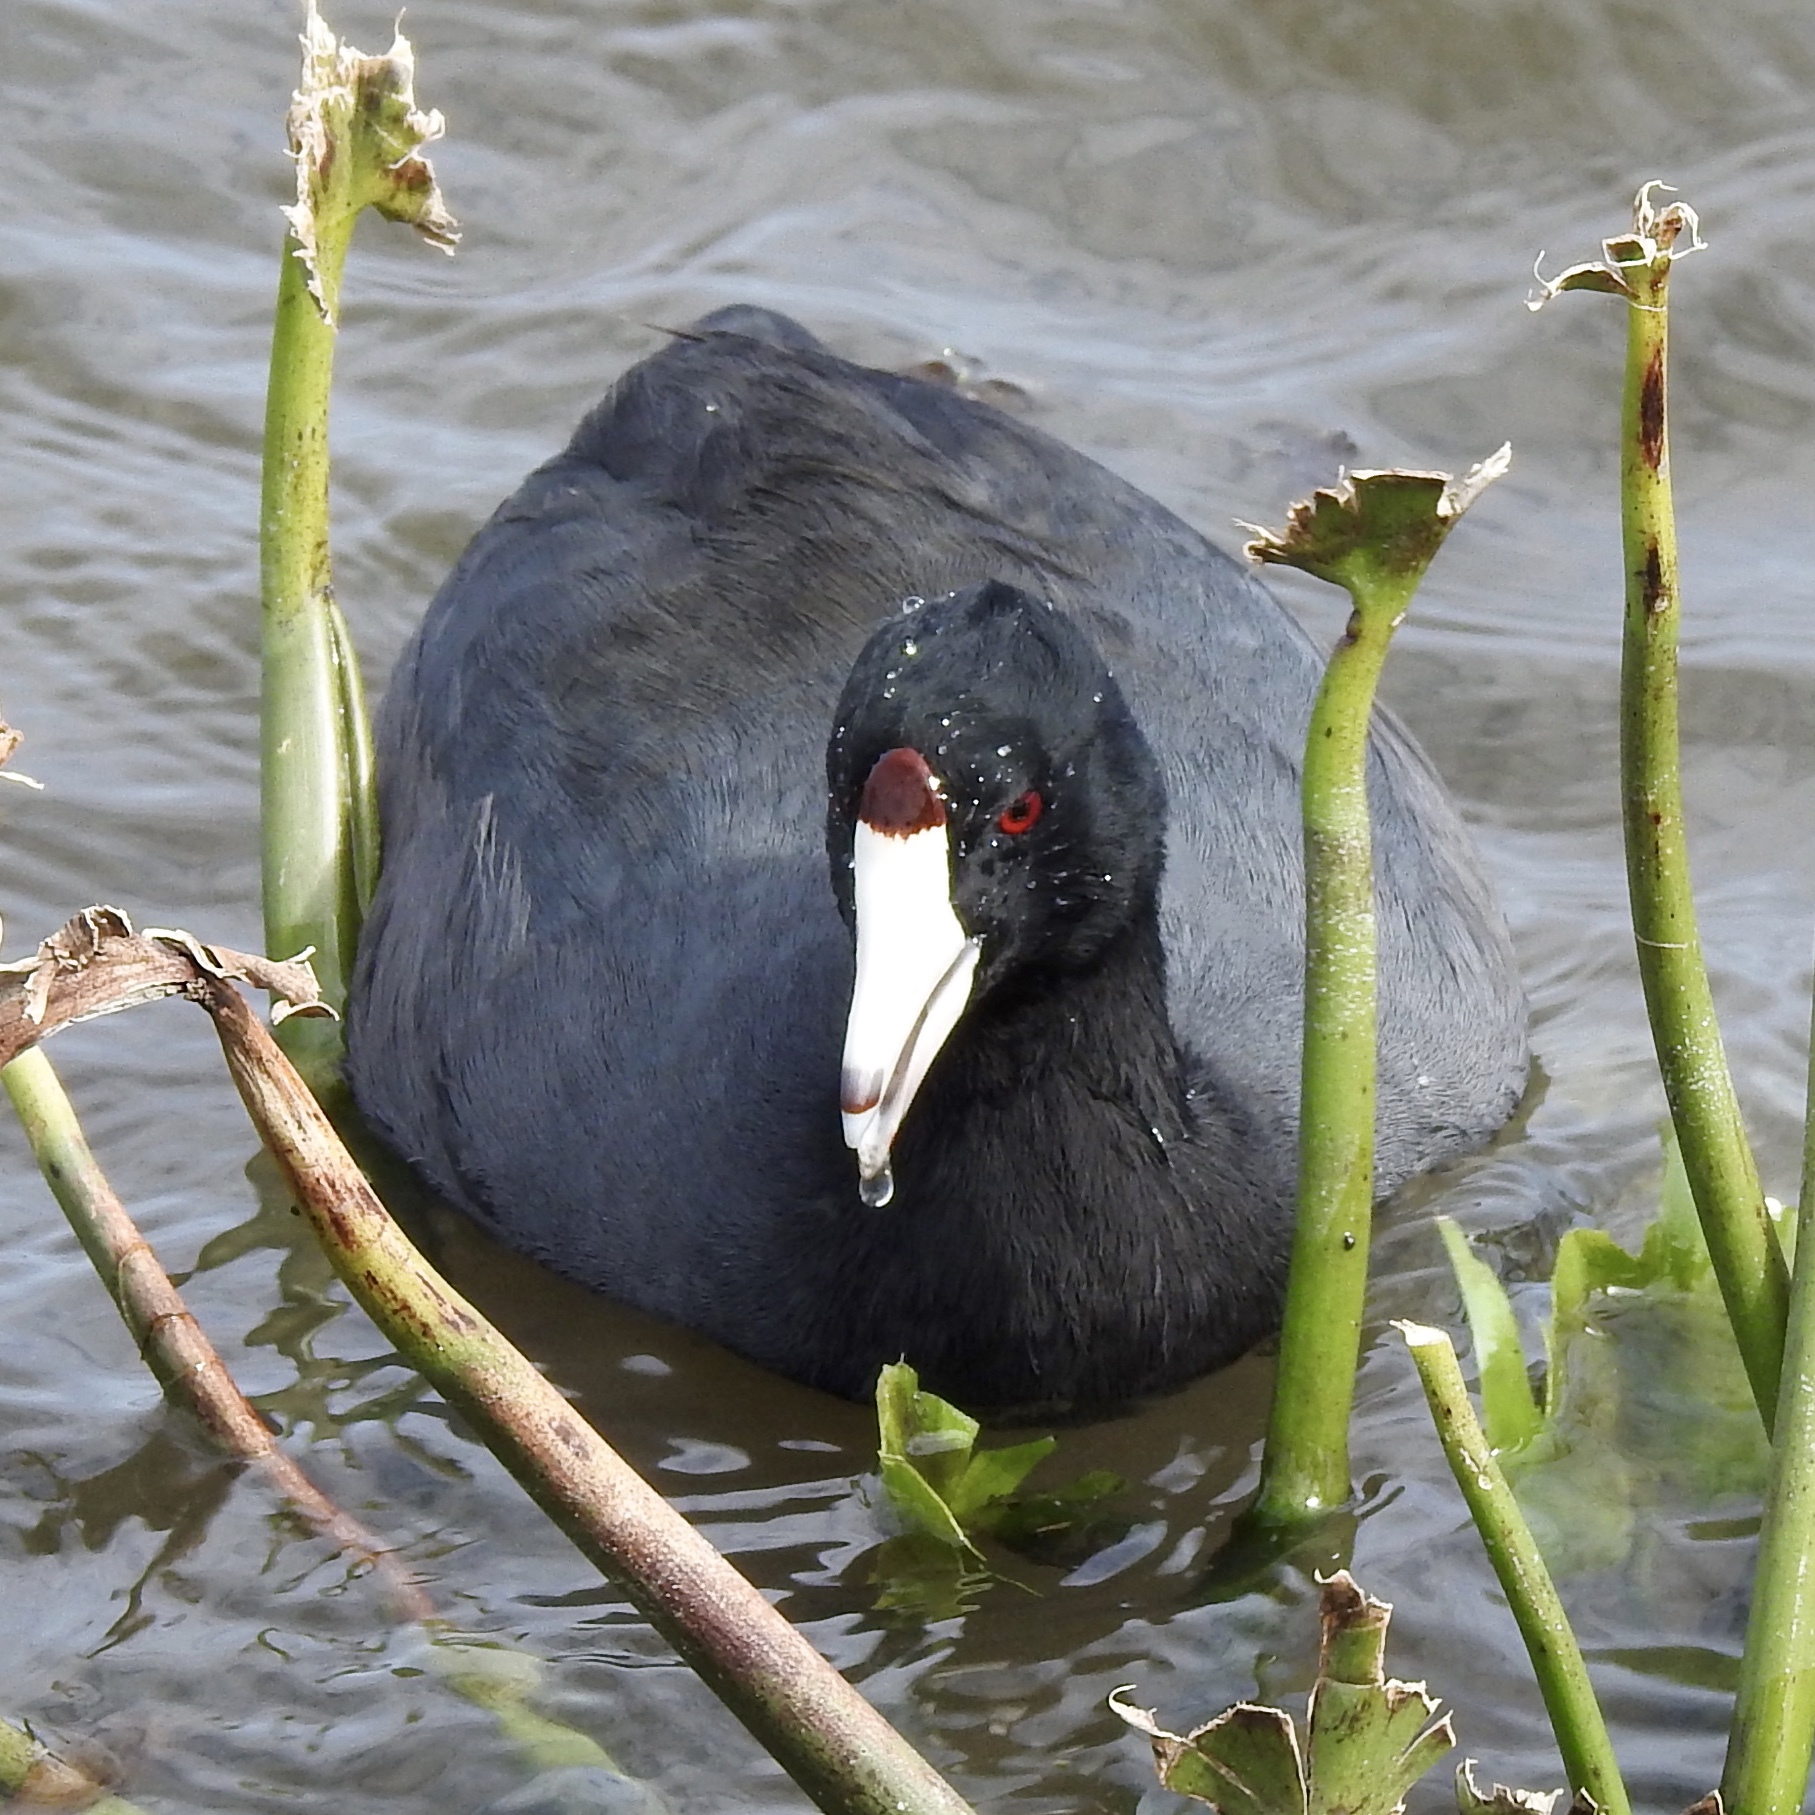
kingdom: Animalia
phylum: Chordata
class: Aves
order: Gruiformes
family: Rallidae
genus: Fulica
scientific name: Fulica americana
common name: American coot
